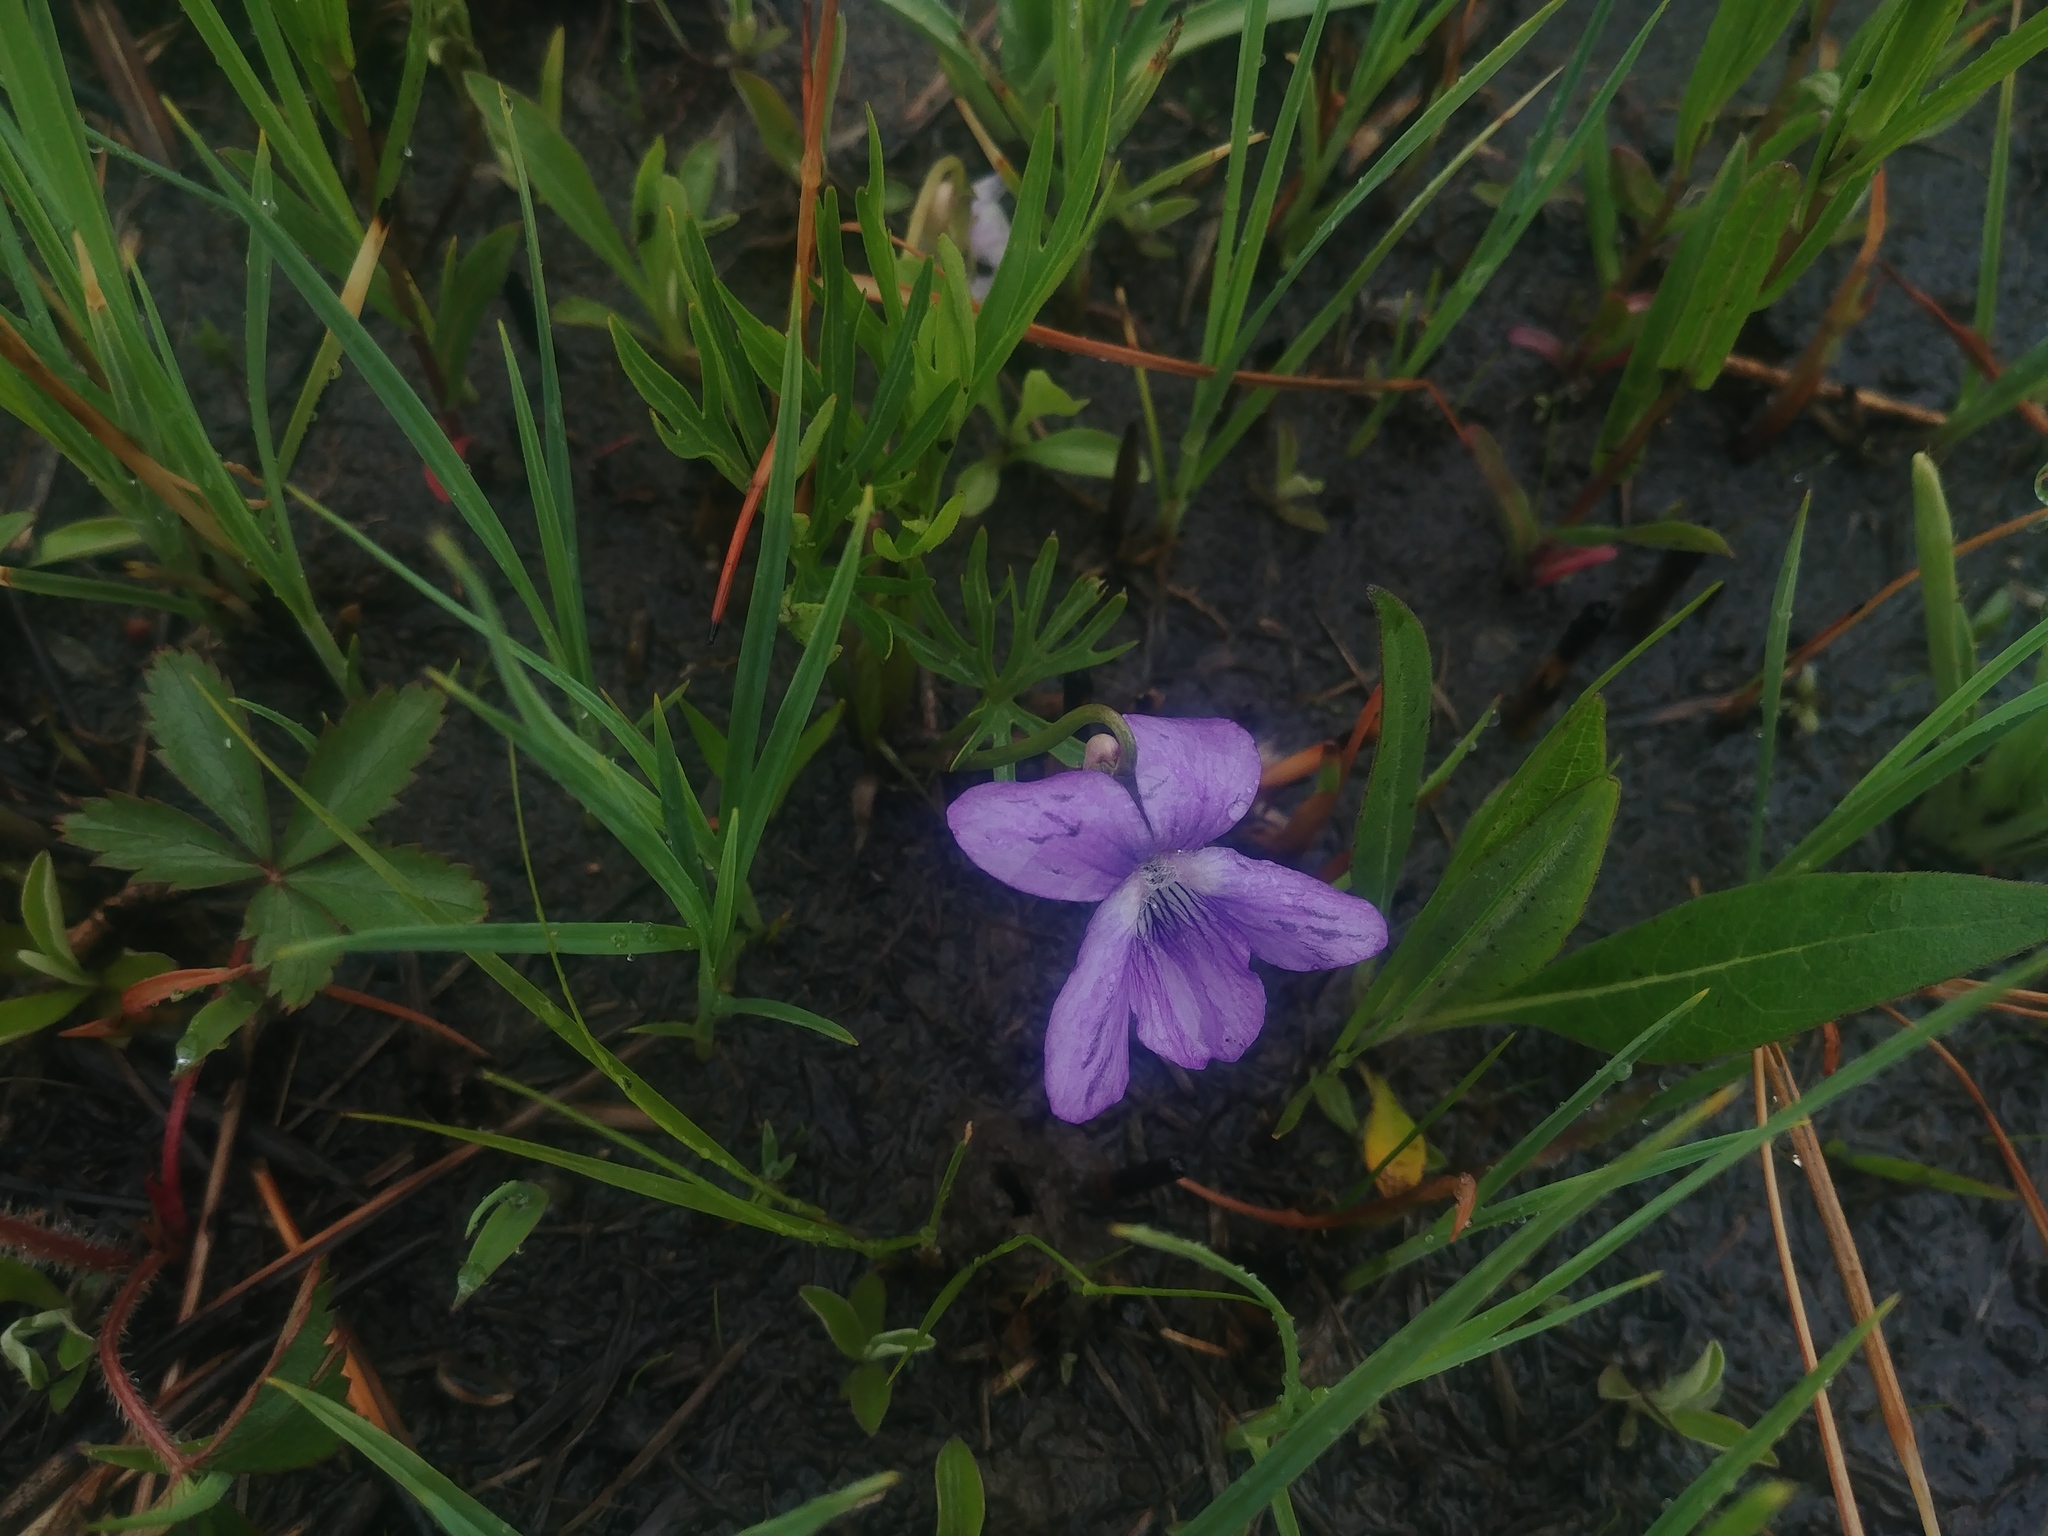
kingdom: Plantae
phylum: Tracheophyta
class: Magnoliopsida
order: Malpighiales
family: Violaceae
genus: Viola
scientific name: Viola pedatifida
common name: Prairie violet
